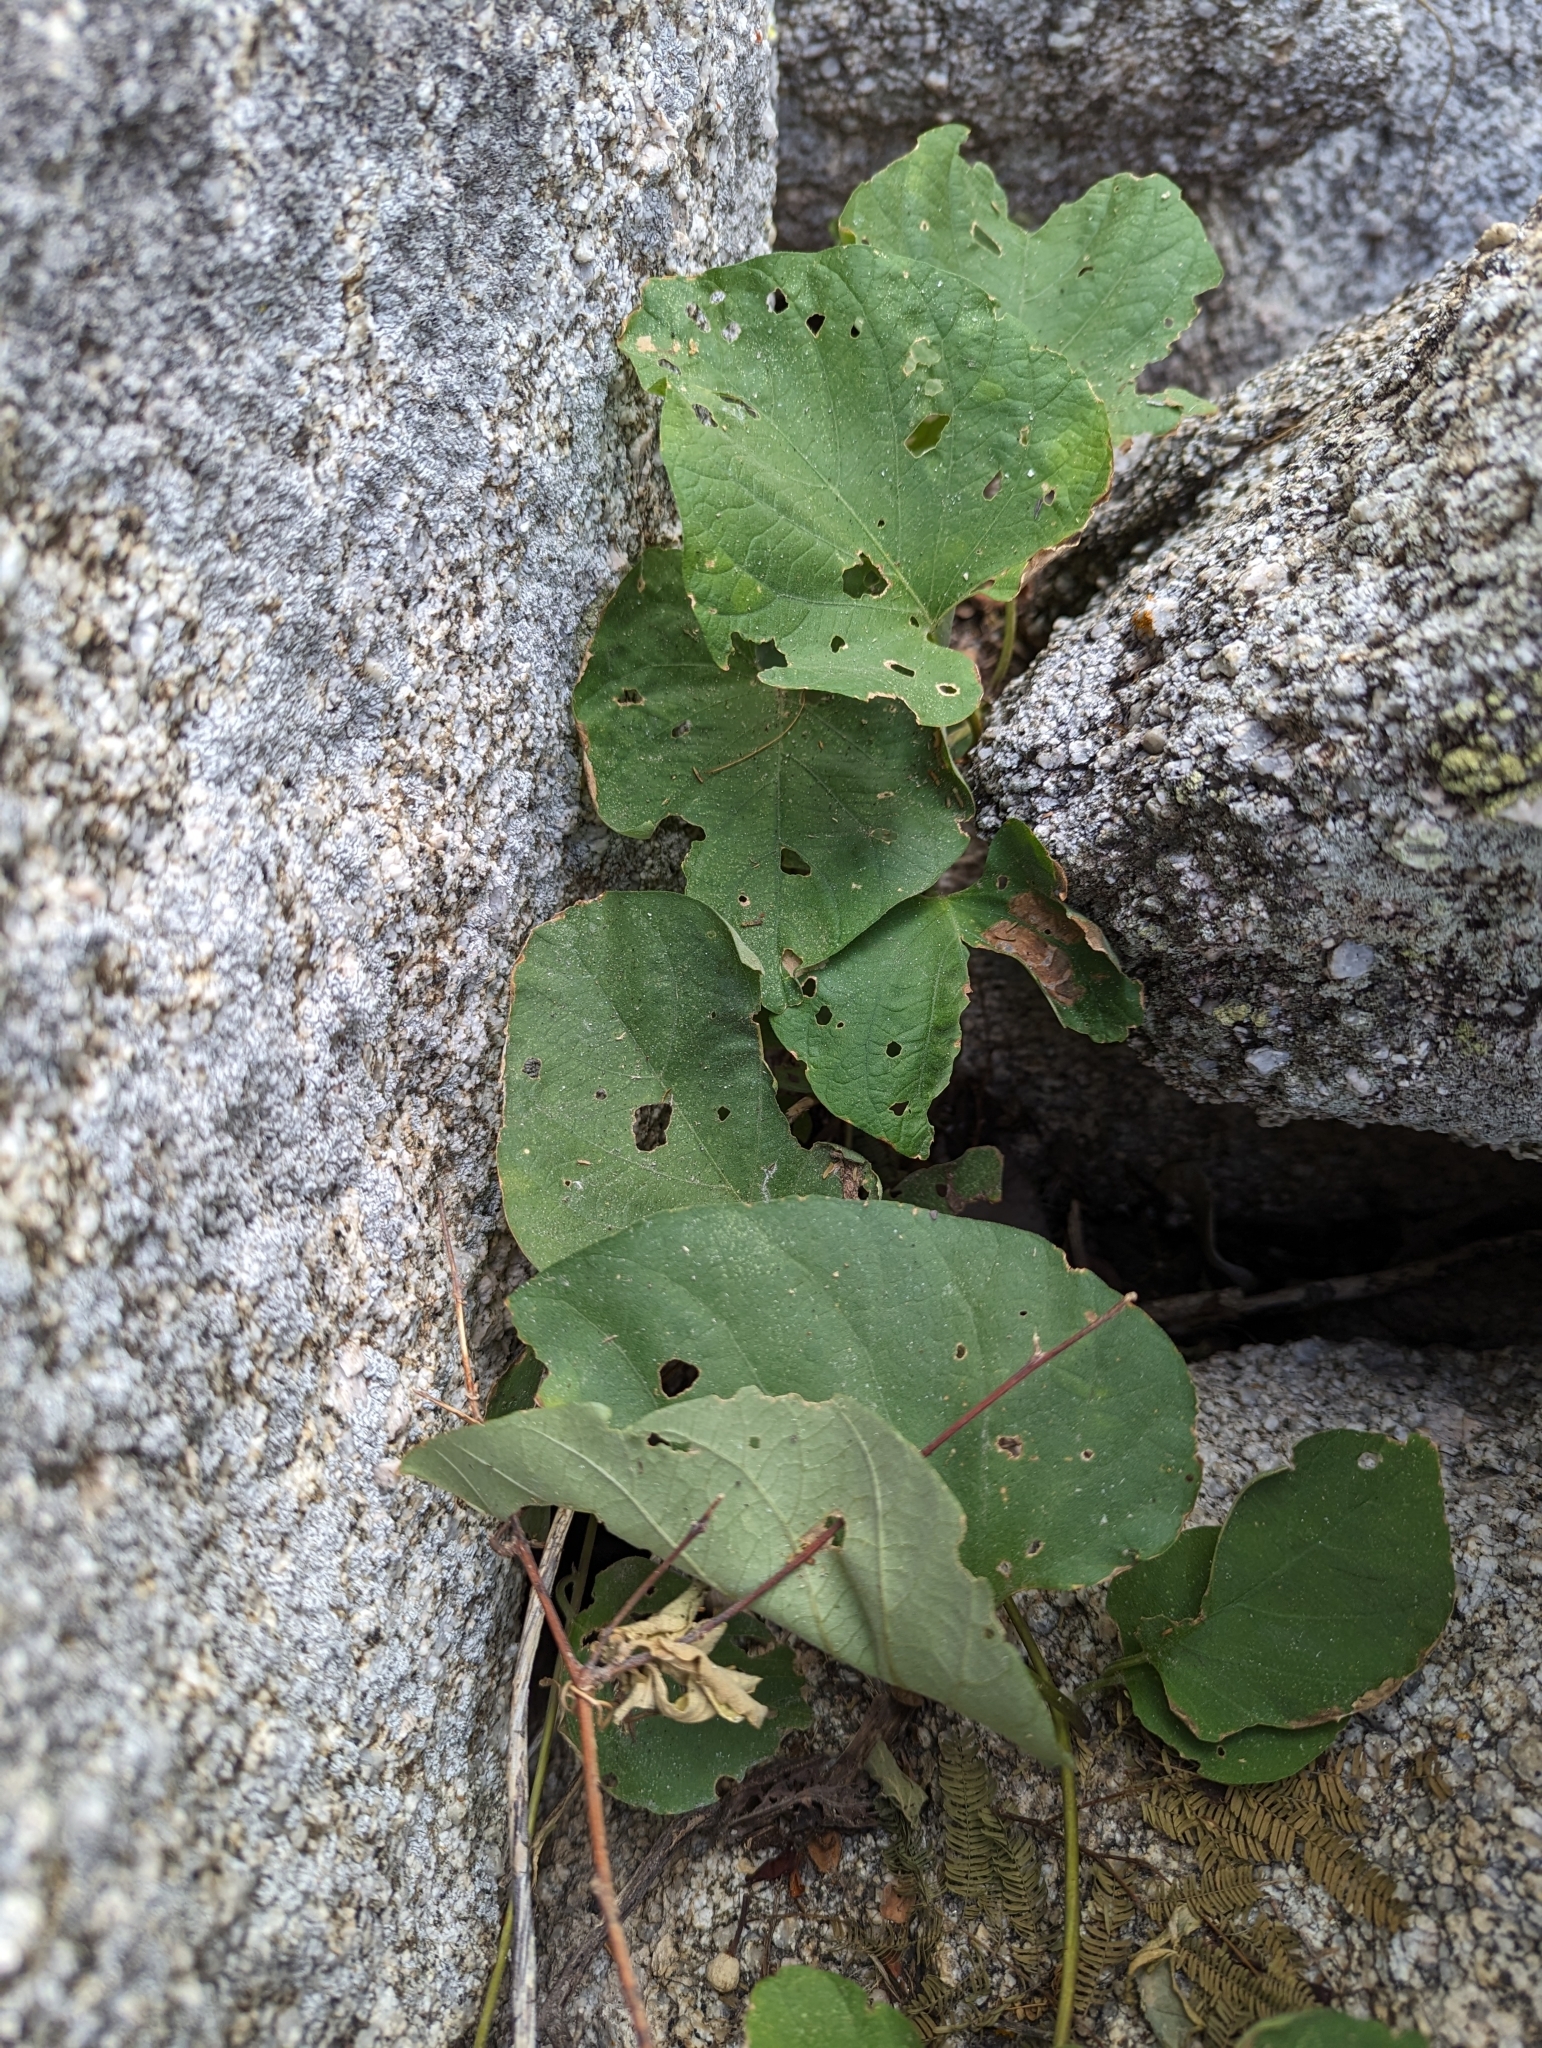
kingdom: Plantae
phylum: Tracheophyta
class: Magnoliopsida
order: Solanales
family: Convolvulaceae
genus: Ipomoea
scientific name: Ipomoea scopulorum
